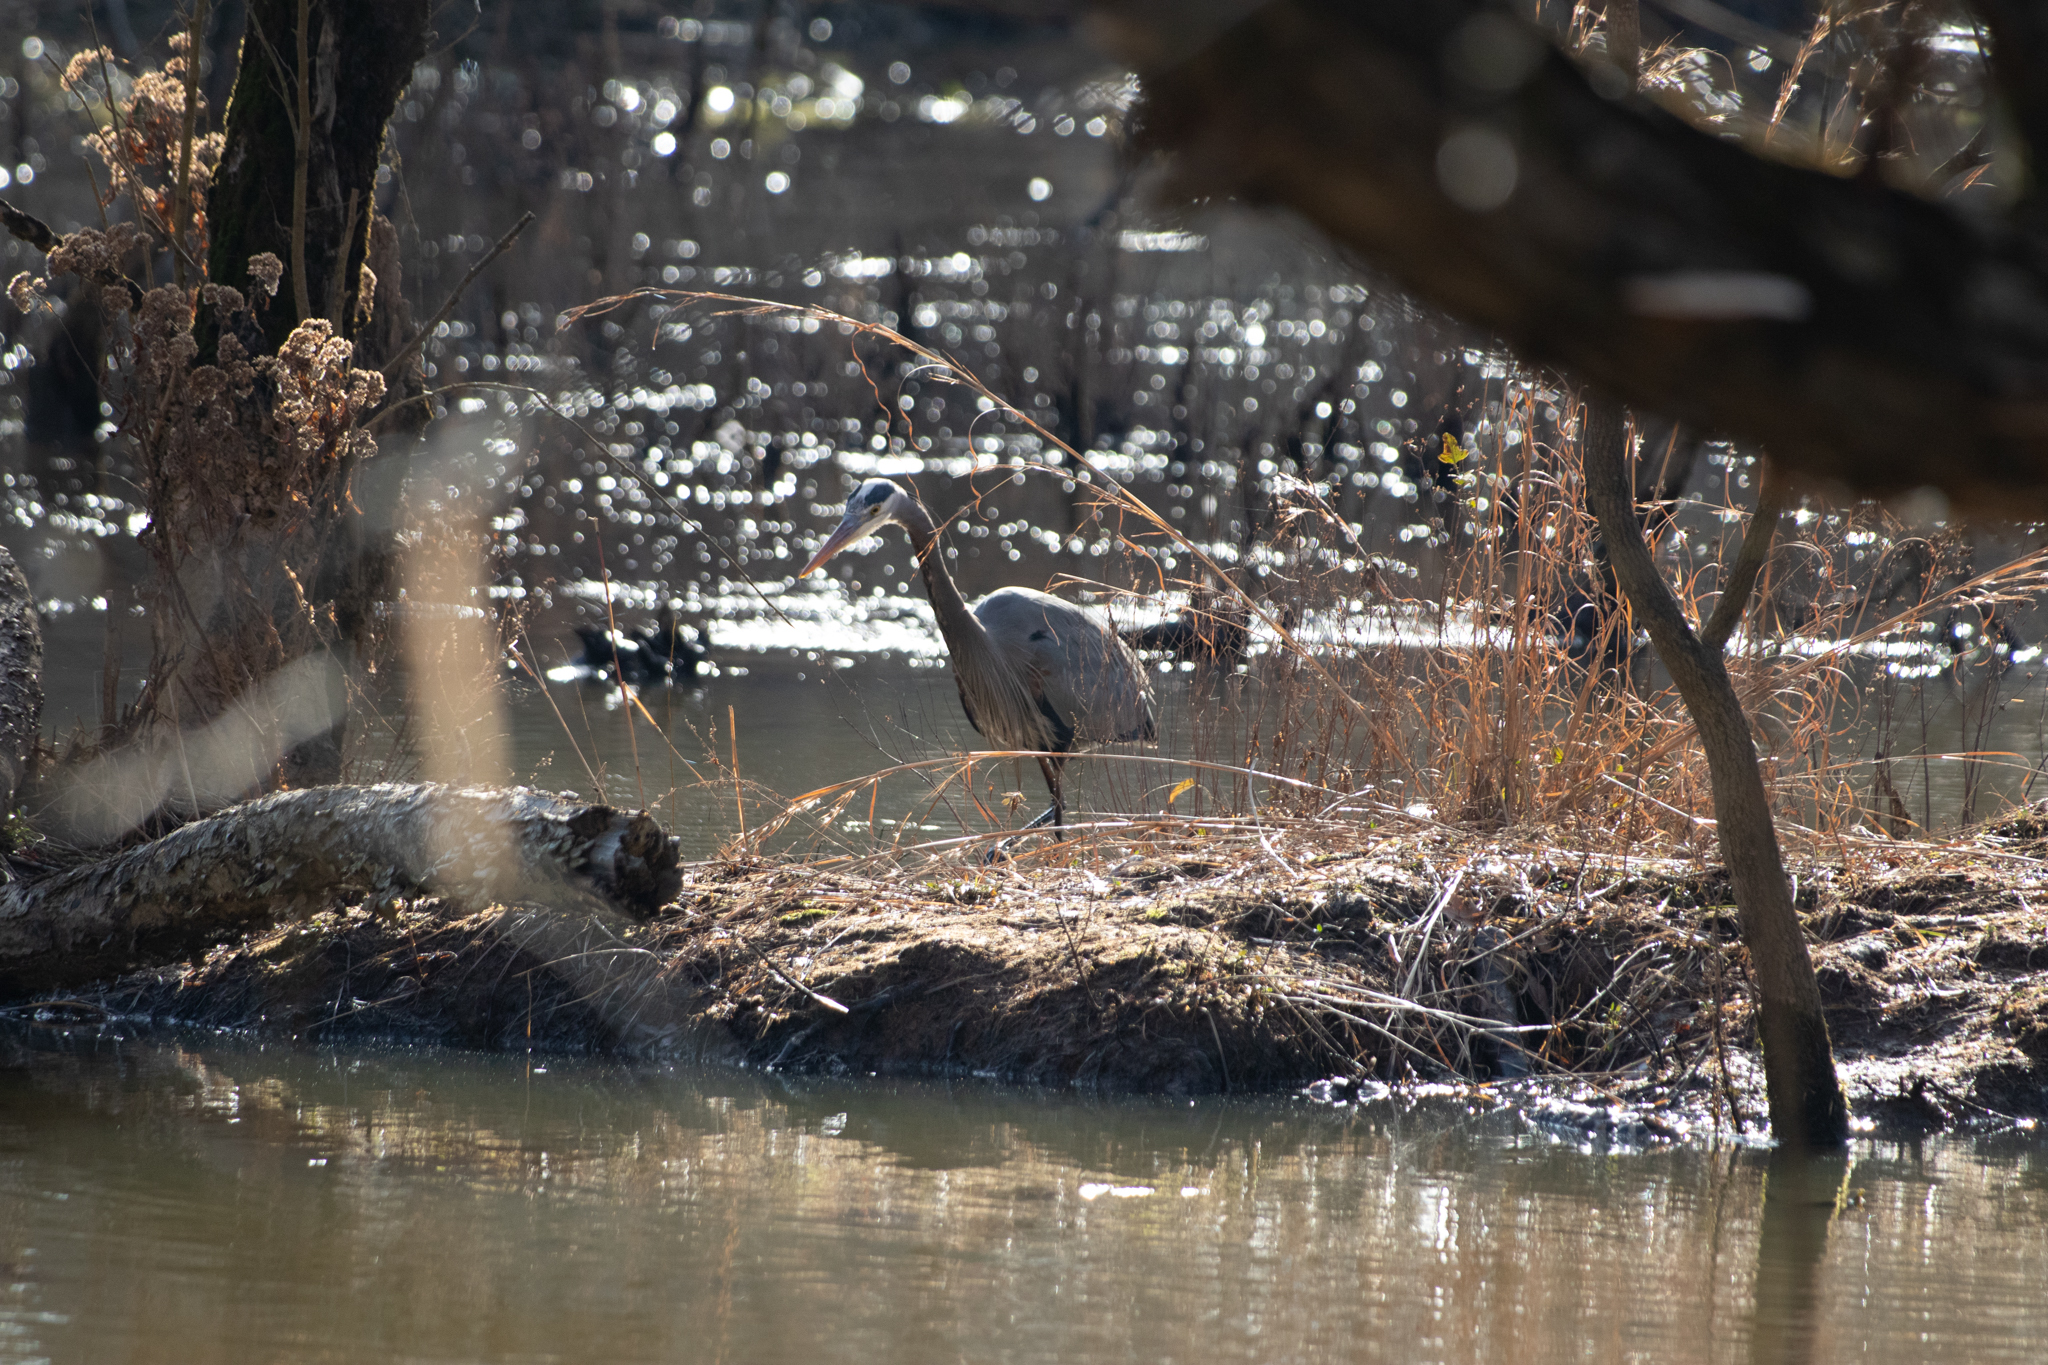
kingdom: Animalia
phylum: Chordata
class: Aves
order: Pelecaniformes
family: Ardeidae
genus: Ardea
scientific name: Ardea herodias
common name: Great blue heron
